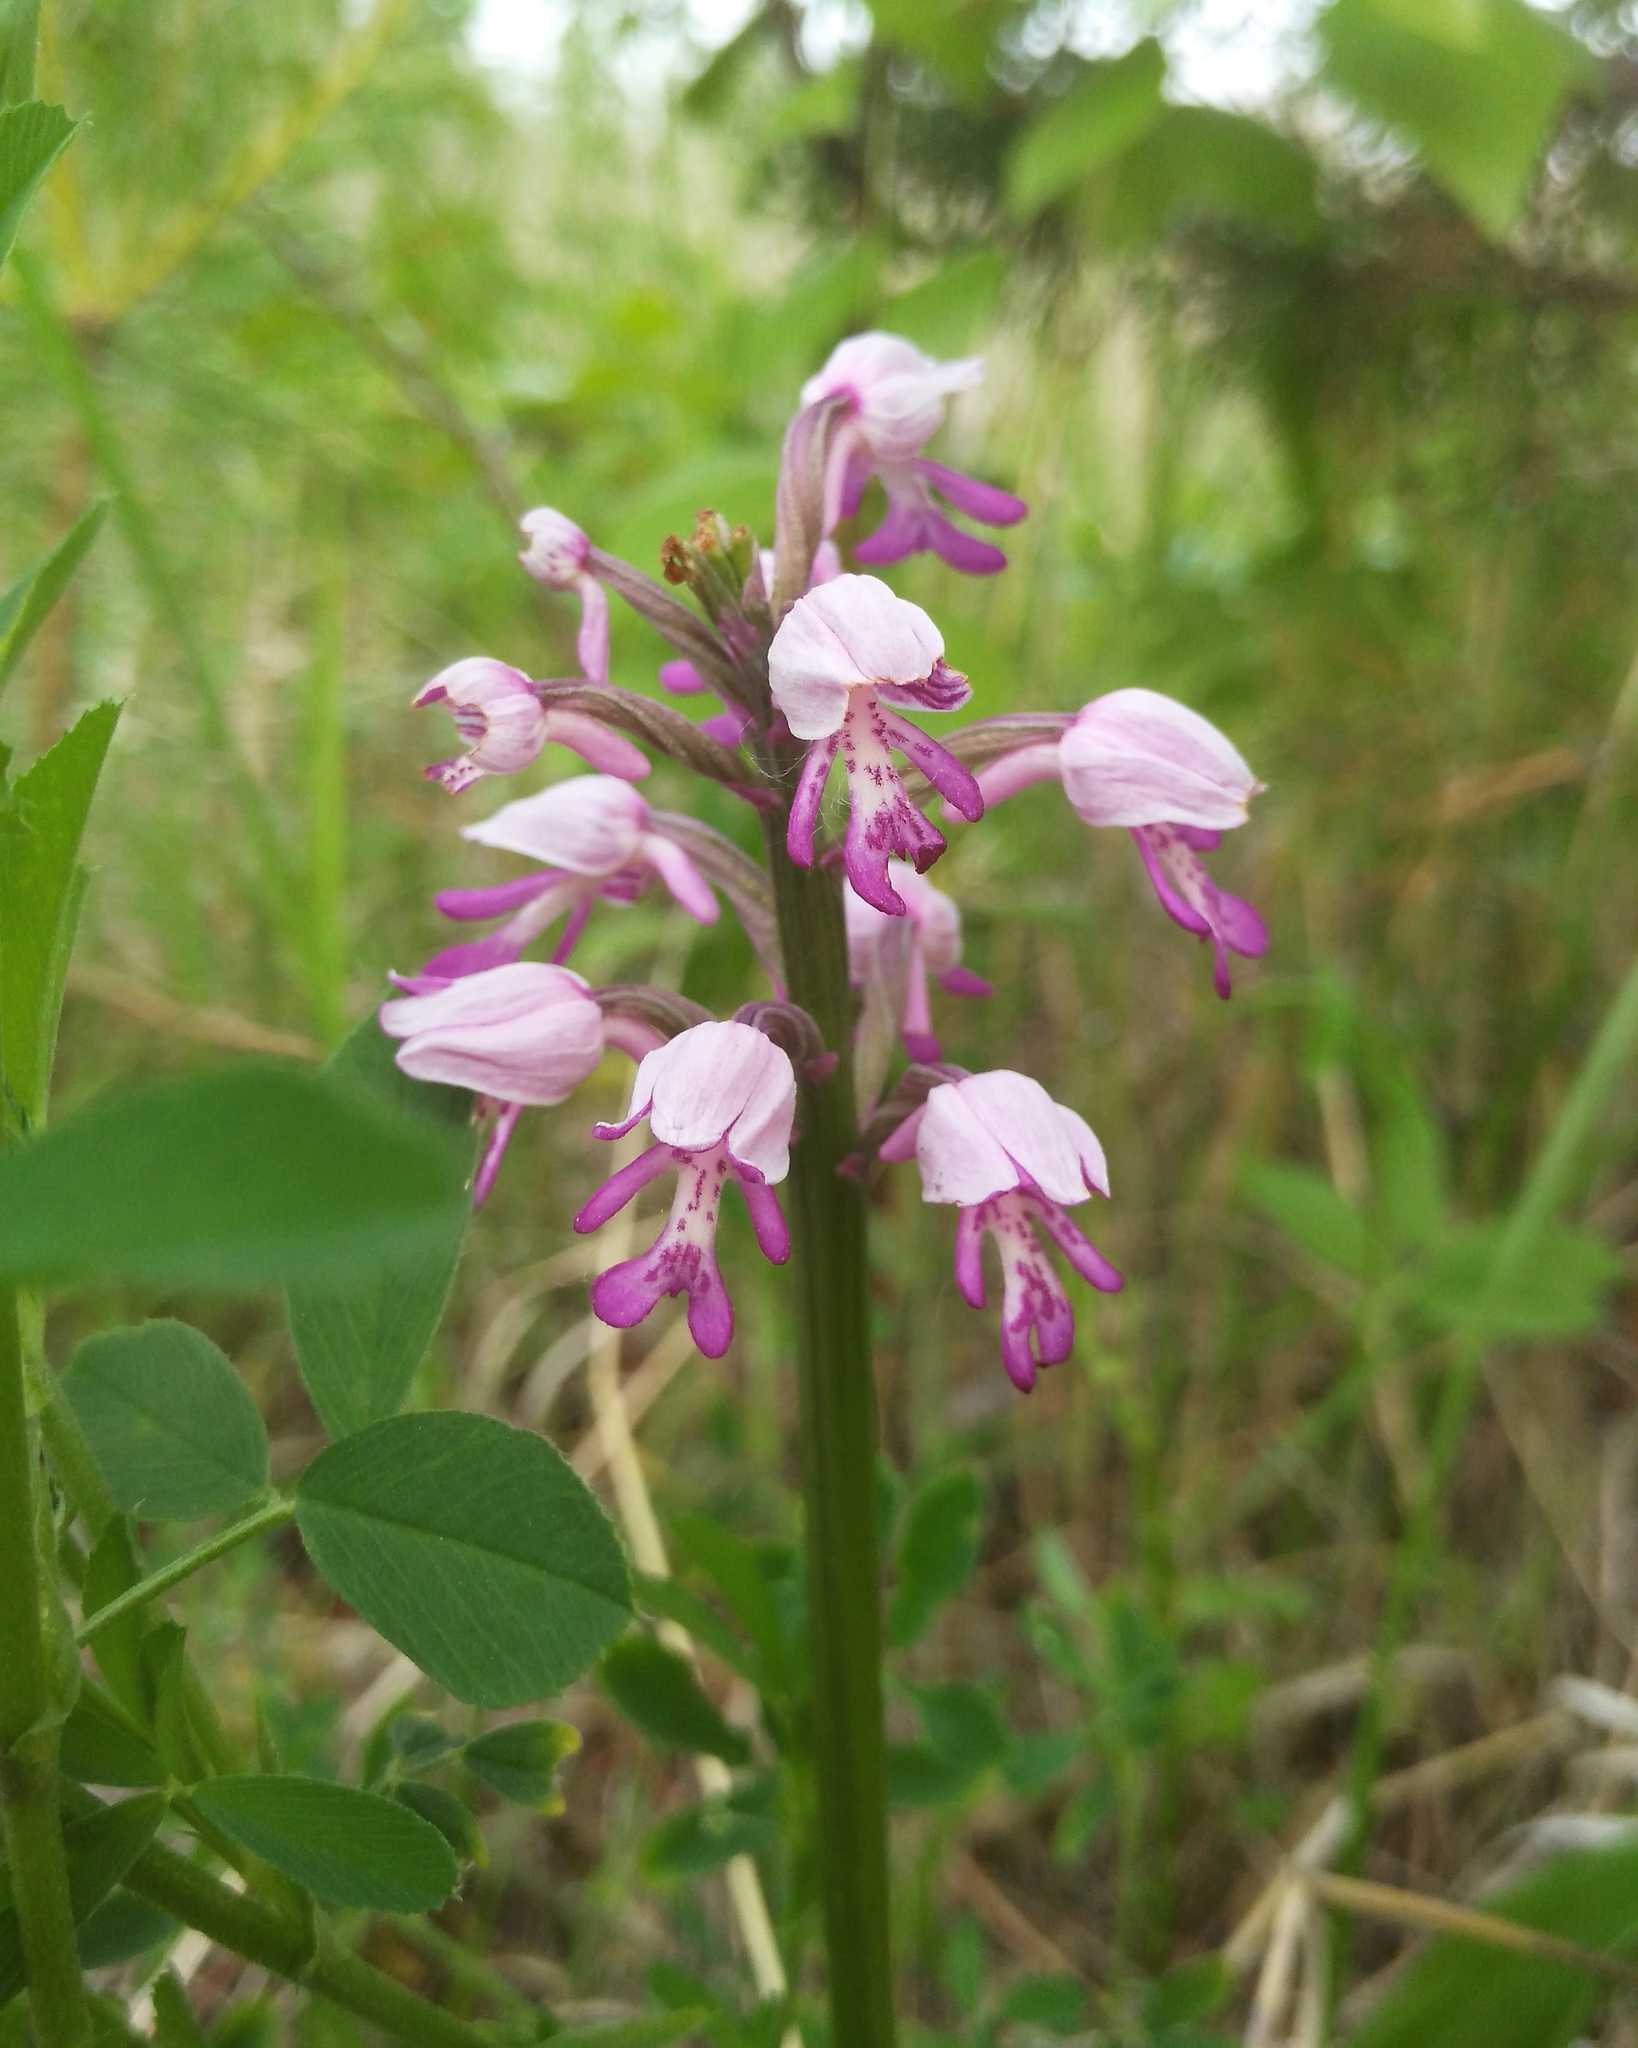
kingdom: Plantae
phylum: Tracheophyta
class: Liliopsida
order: Asparagales
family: Orchidaceae
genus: Orchis
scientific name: Orchis militaris
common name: Military orchid
